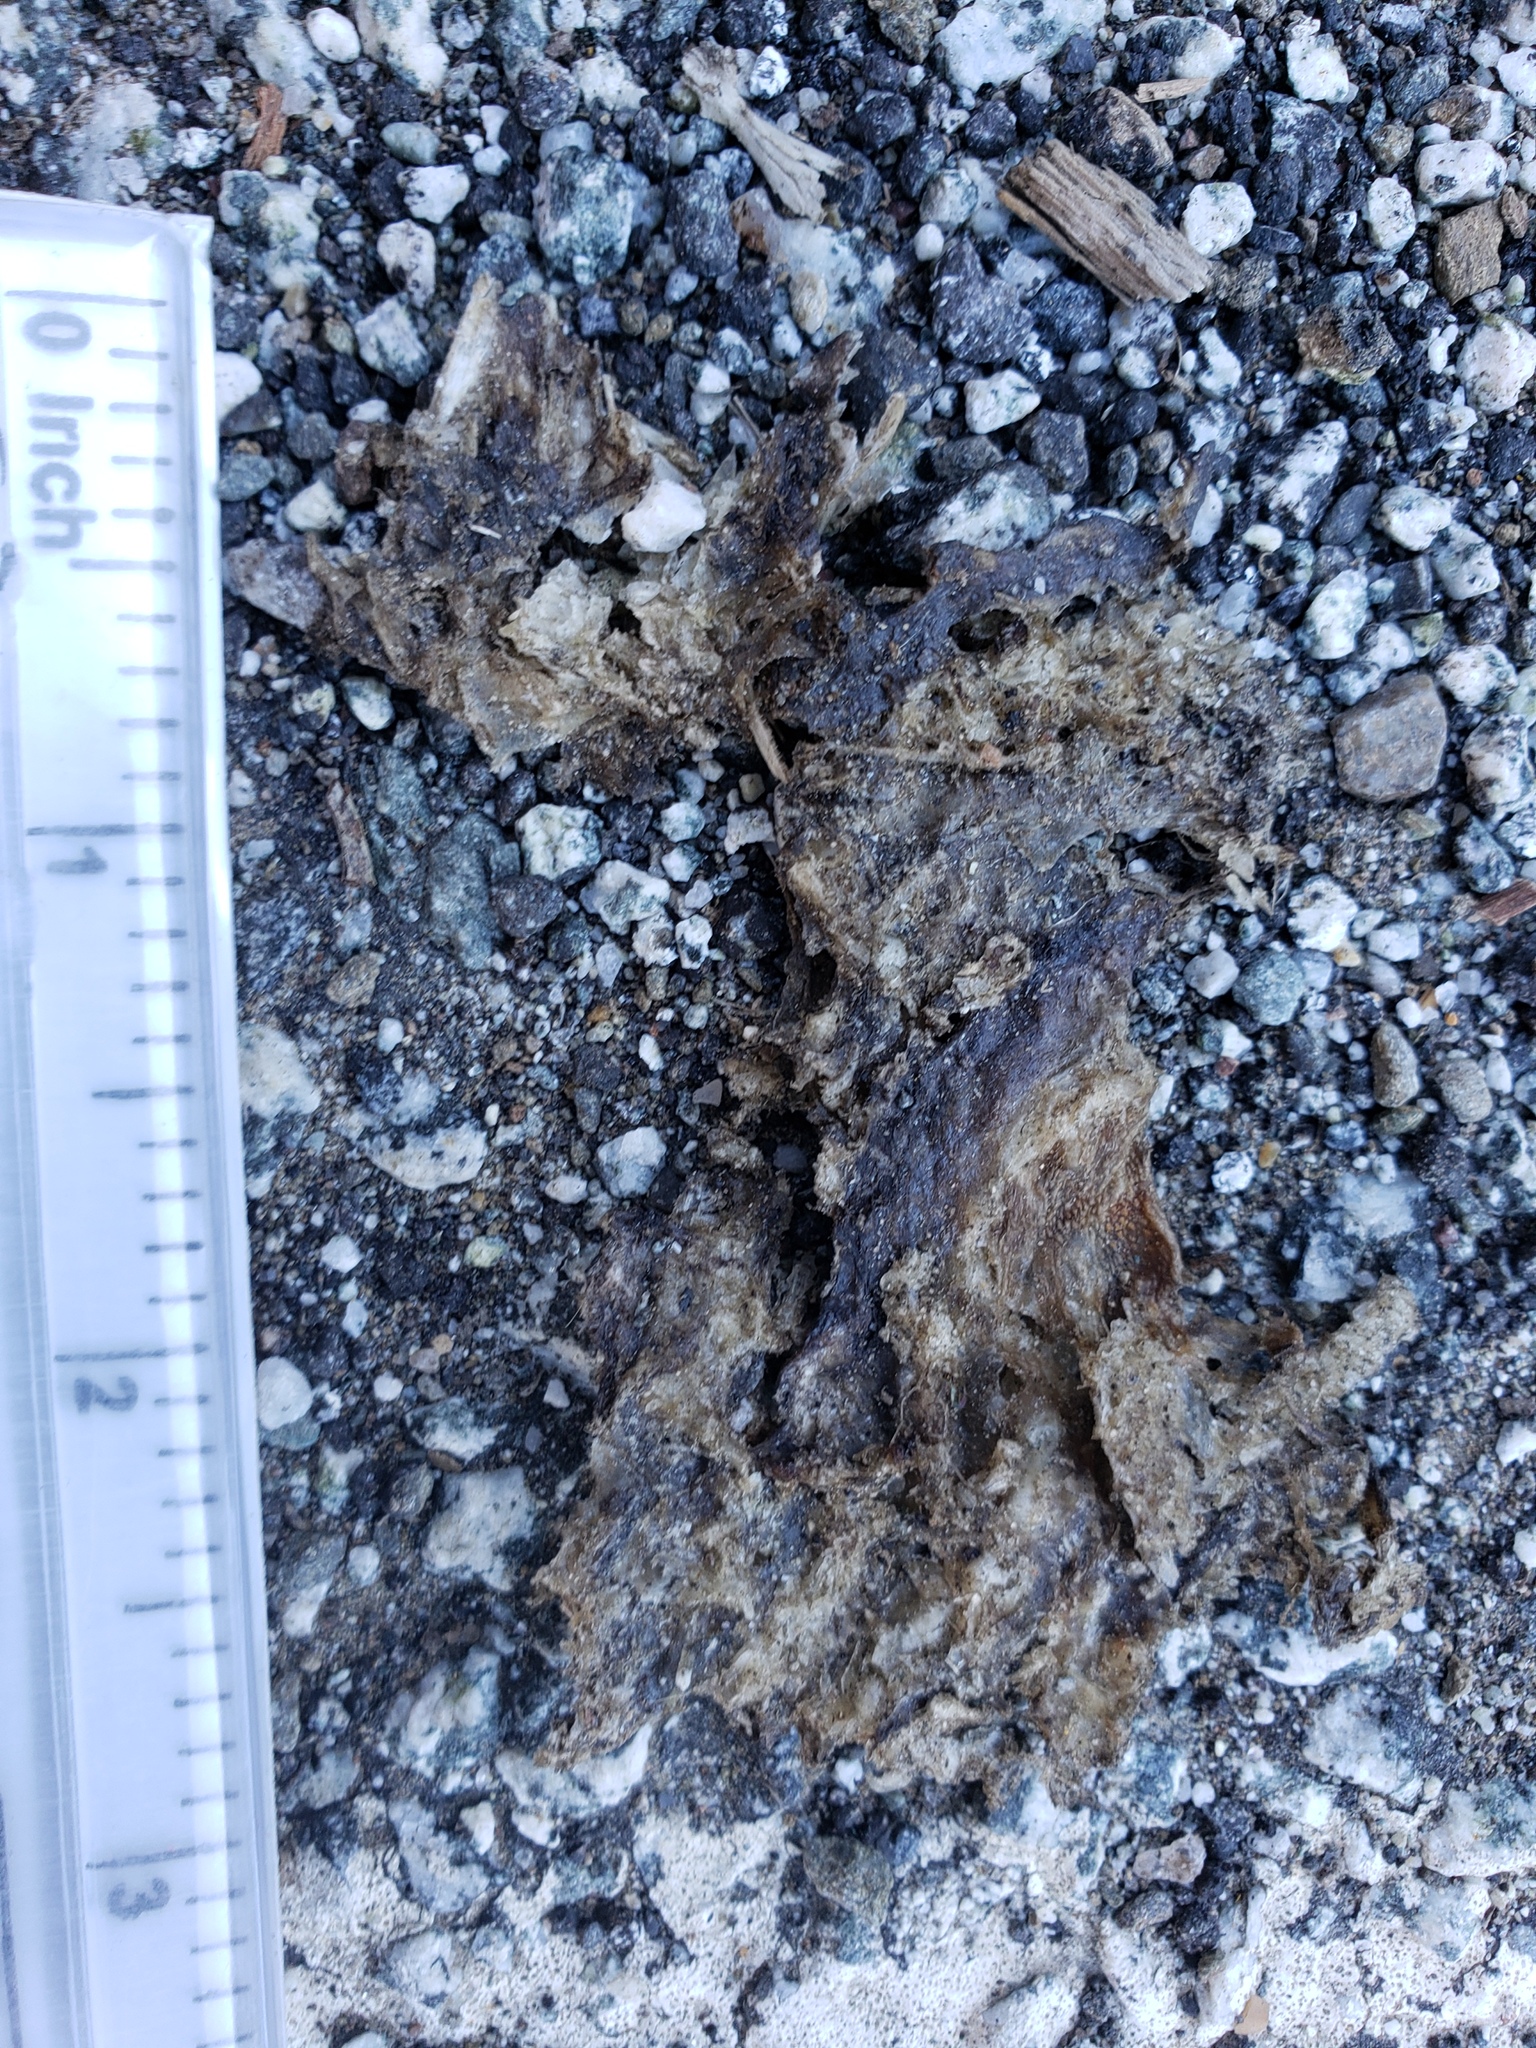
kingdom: Animalia
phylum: Chordata
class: Amphibia
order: Caudata
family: Salamandridae
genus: Taricha
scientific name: Taricha
